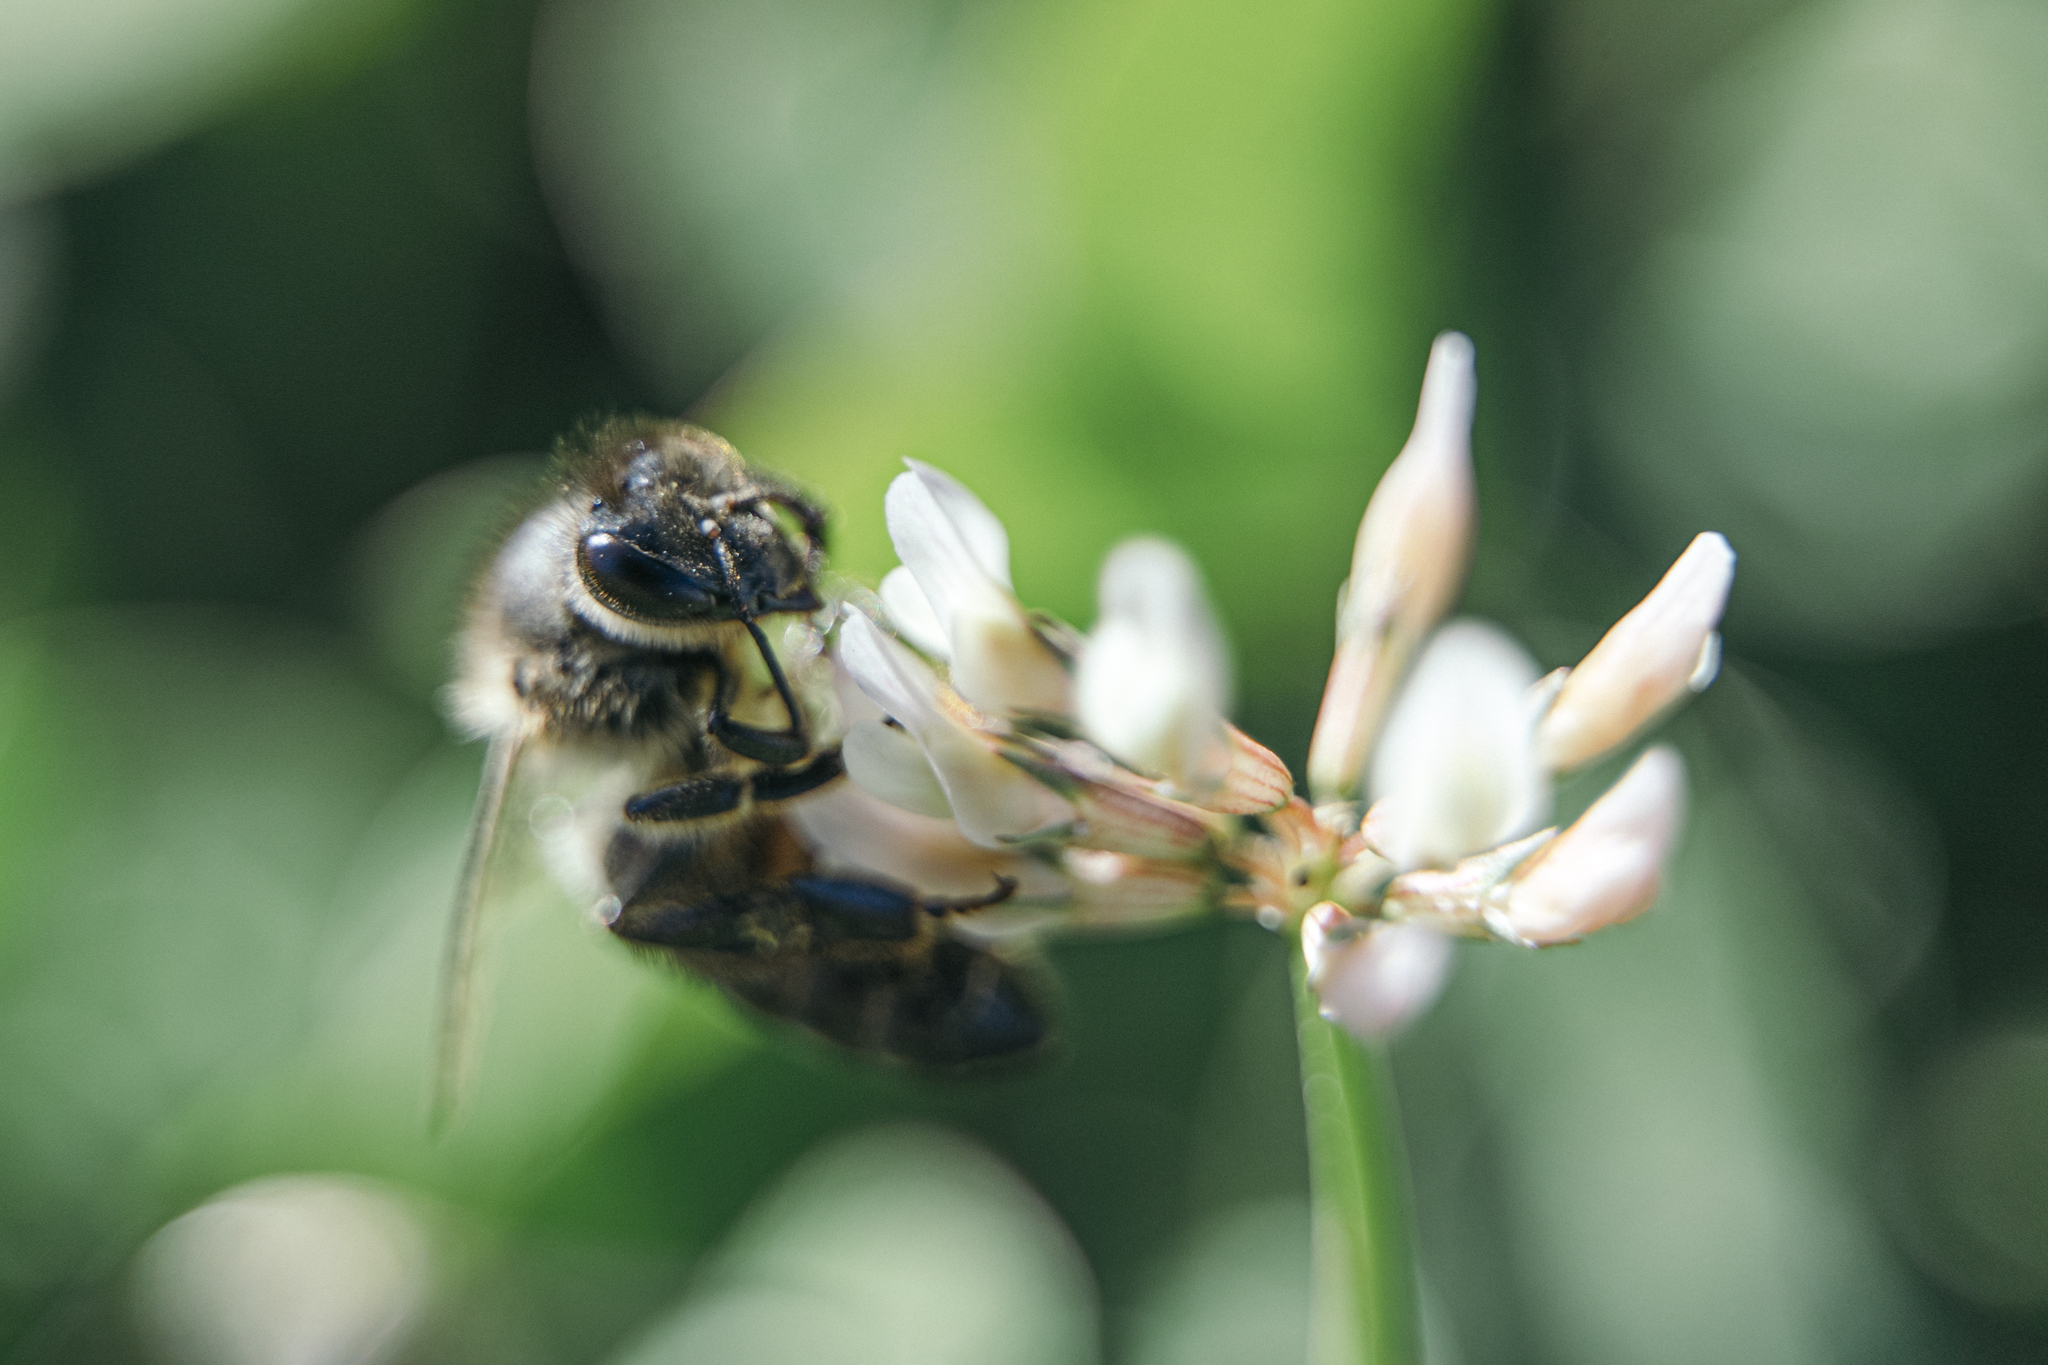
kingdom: Animalia
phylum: Arthropoda
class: Insecta
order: Hymenoptera
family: Apidae
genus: Apis
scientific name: Apis mellifera
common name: Honey bee
